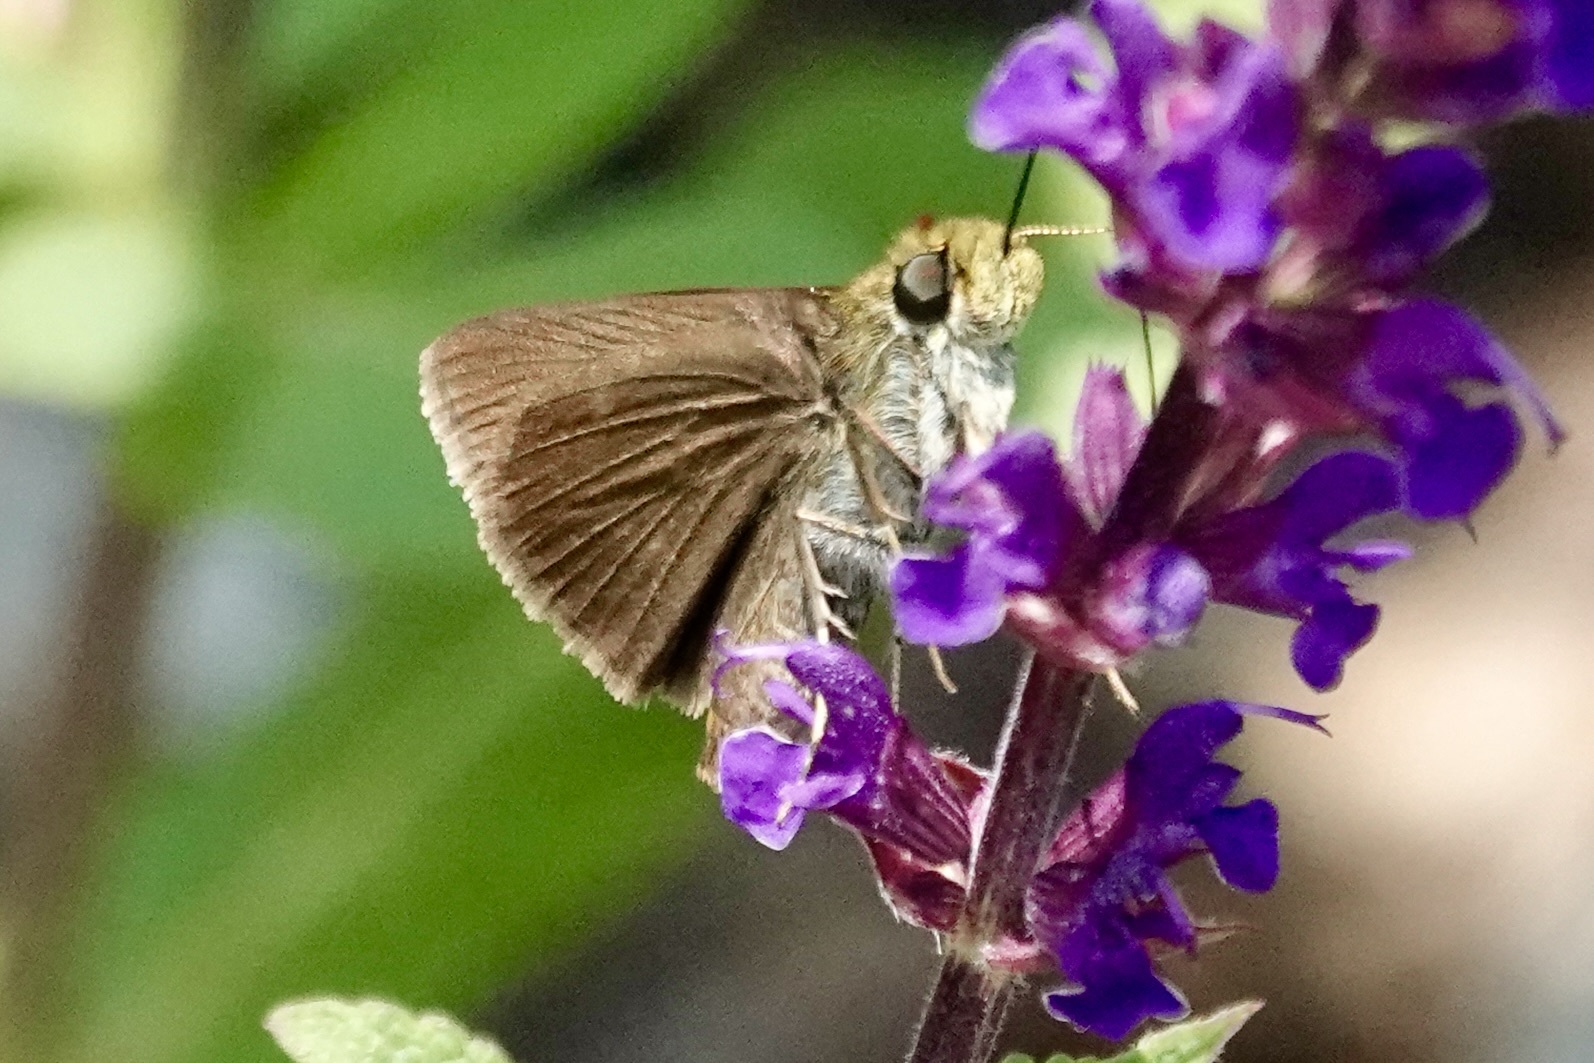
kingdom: Animalia
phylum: Arthropoda
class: Insecta
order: Lepidoptera
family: Hesperiidae
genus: Euphyes
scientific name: Euphyes vestris
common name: Dun skipper
